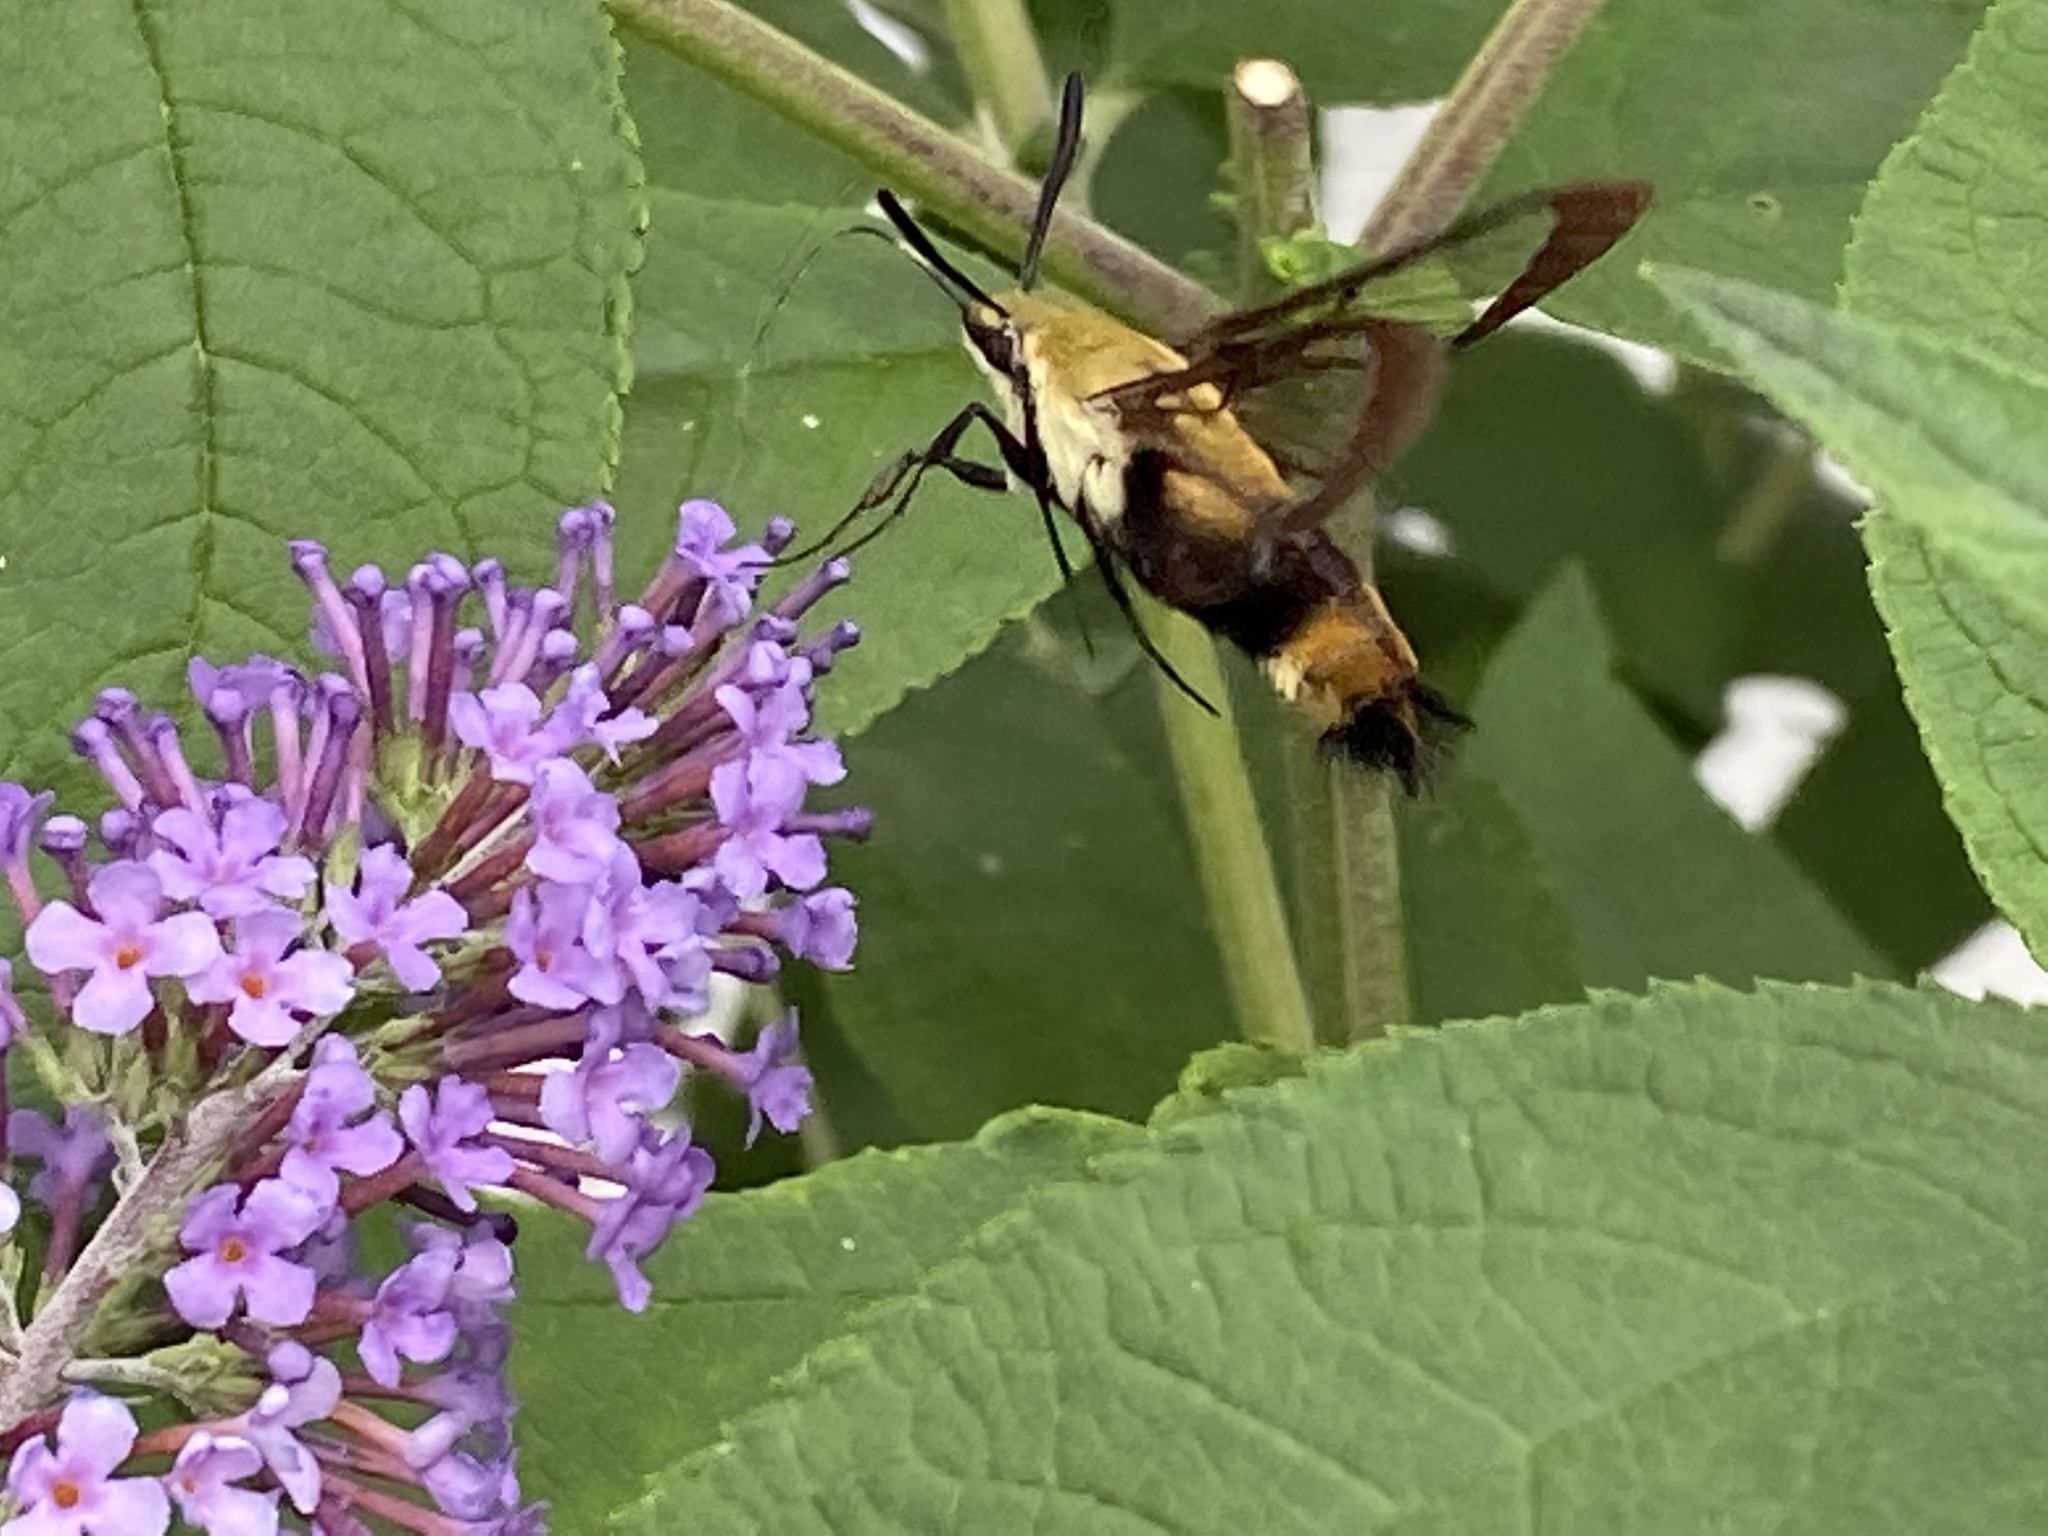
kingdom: Animalia
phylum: Arthropoda
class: Insecta
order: Lepidoptera
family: Sphingidae
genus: Hemaris
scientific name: Hemaris diffinis
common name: Bumblebee moth
